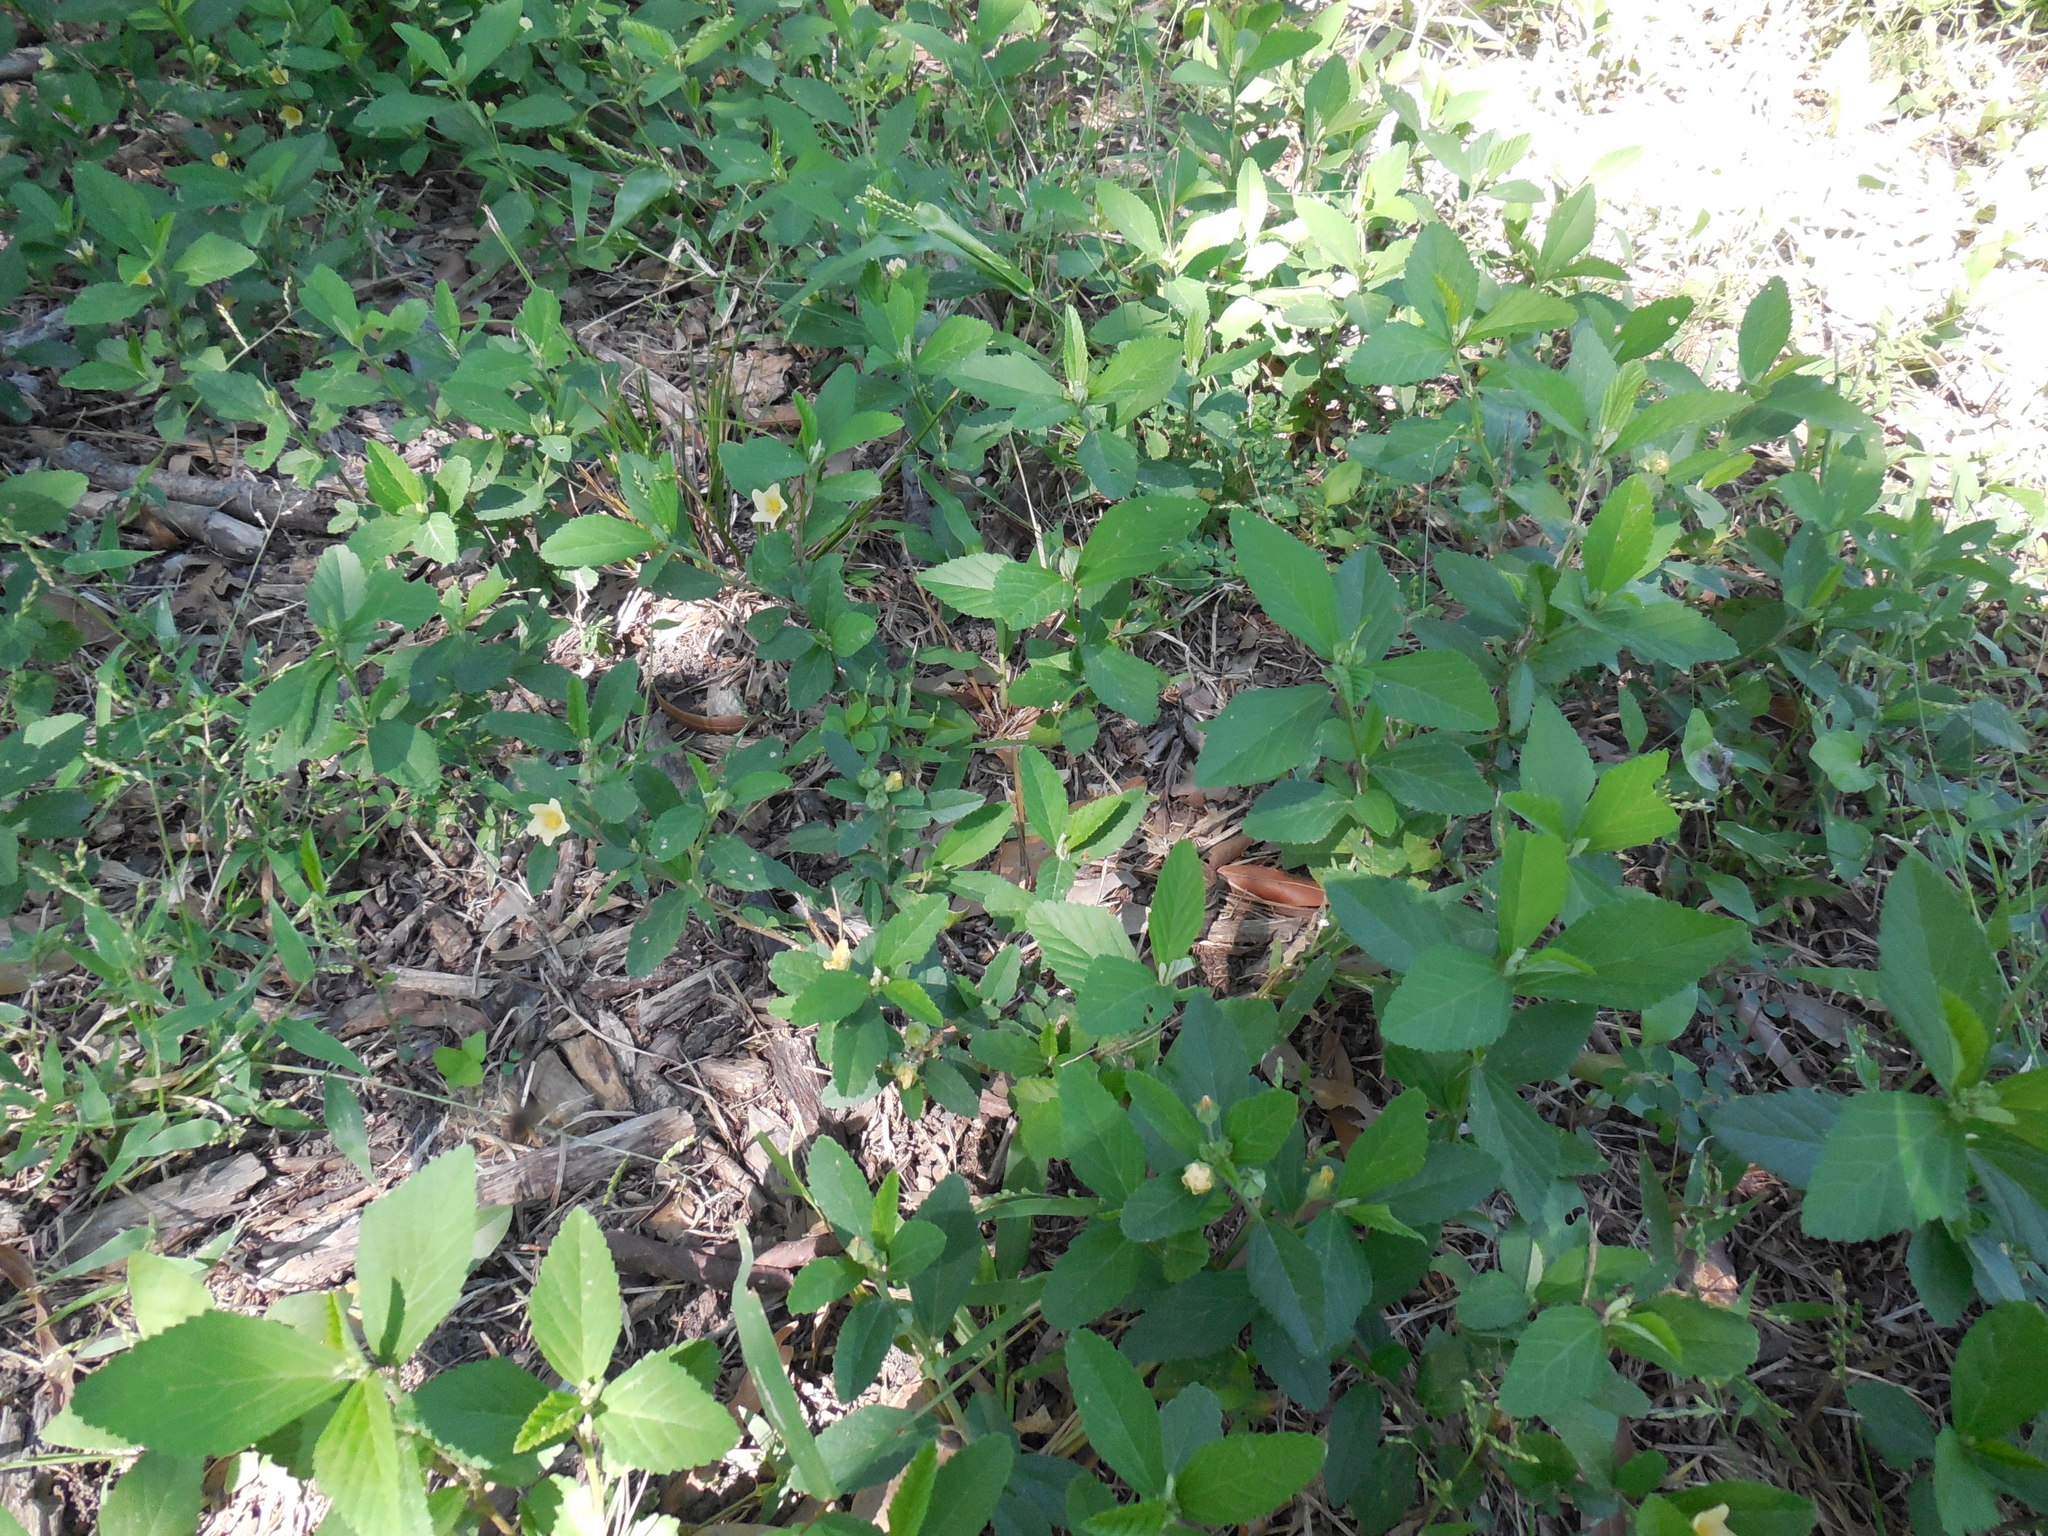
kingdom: Plantae
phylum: Tracheophyta
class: Magnoliopsida
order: Malvales
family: Malvaceae
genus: Sida
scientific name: Sida rhombifolia
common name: Queensland-hemp
